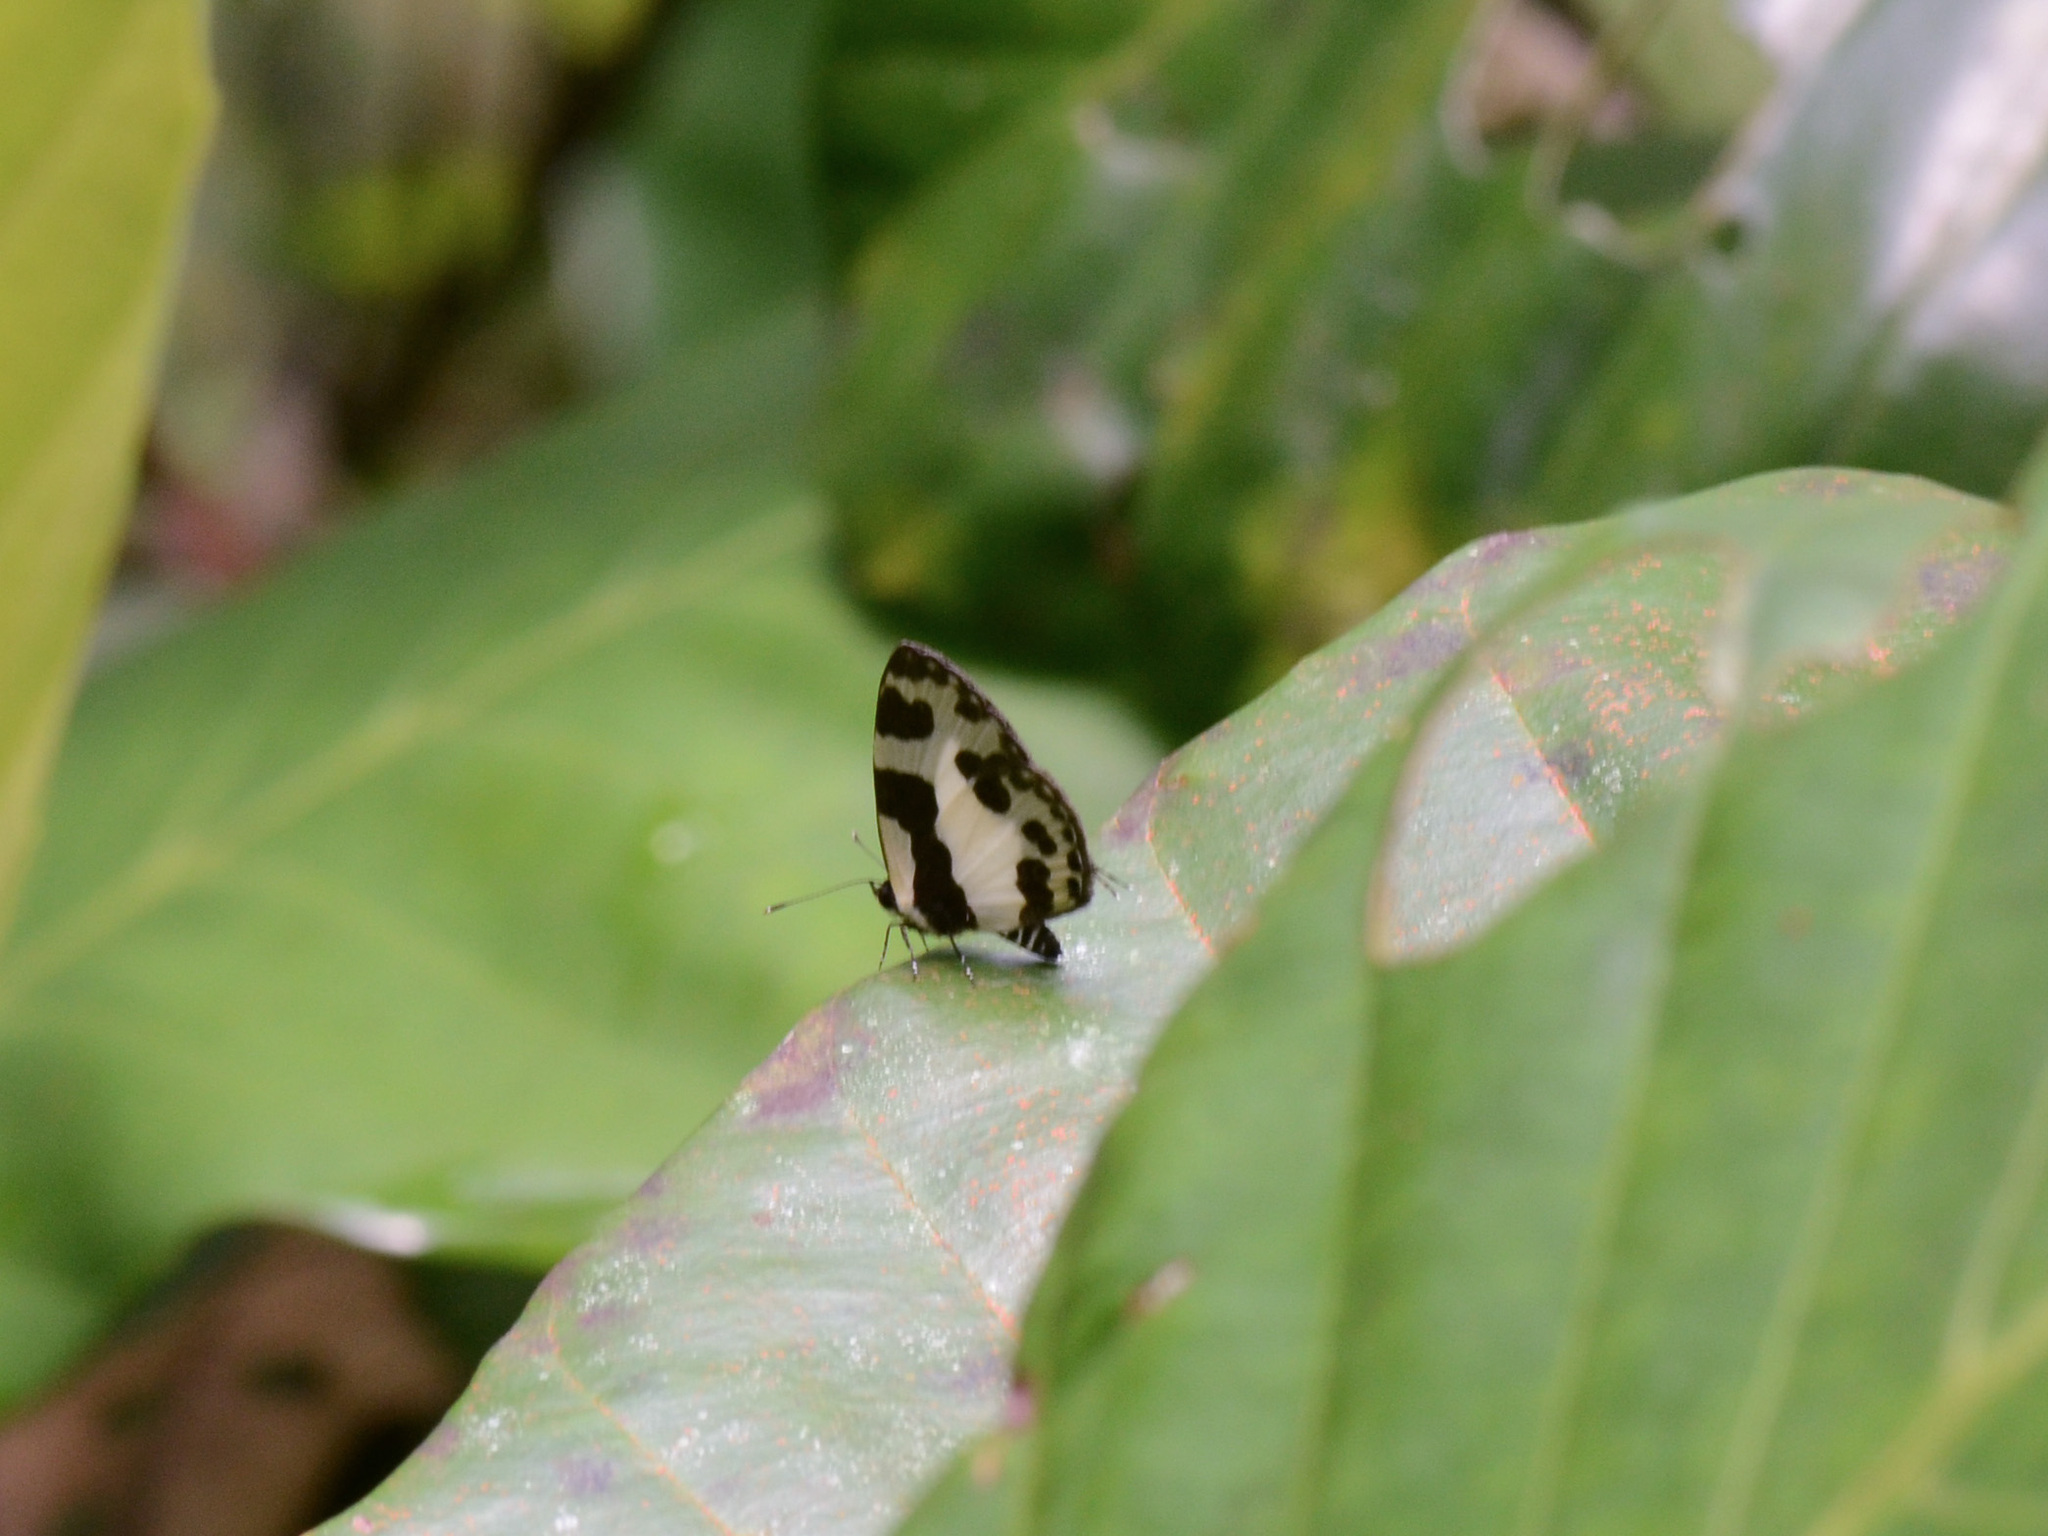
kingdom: Animalia
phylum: Arthropoda
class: Insecta
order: Lepidoptera
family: Lycaenidae
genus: Caleta
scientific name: Caleta elna
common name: Elbowed pierrot
